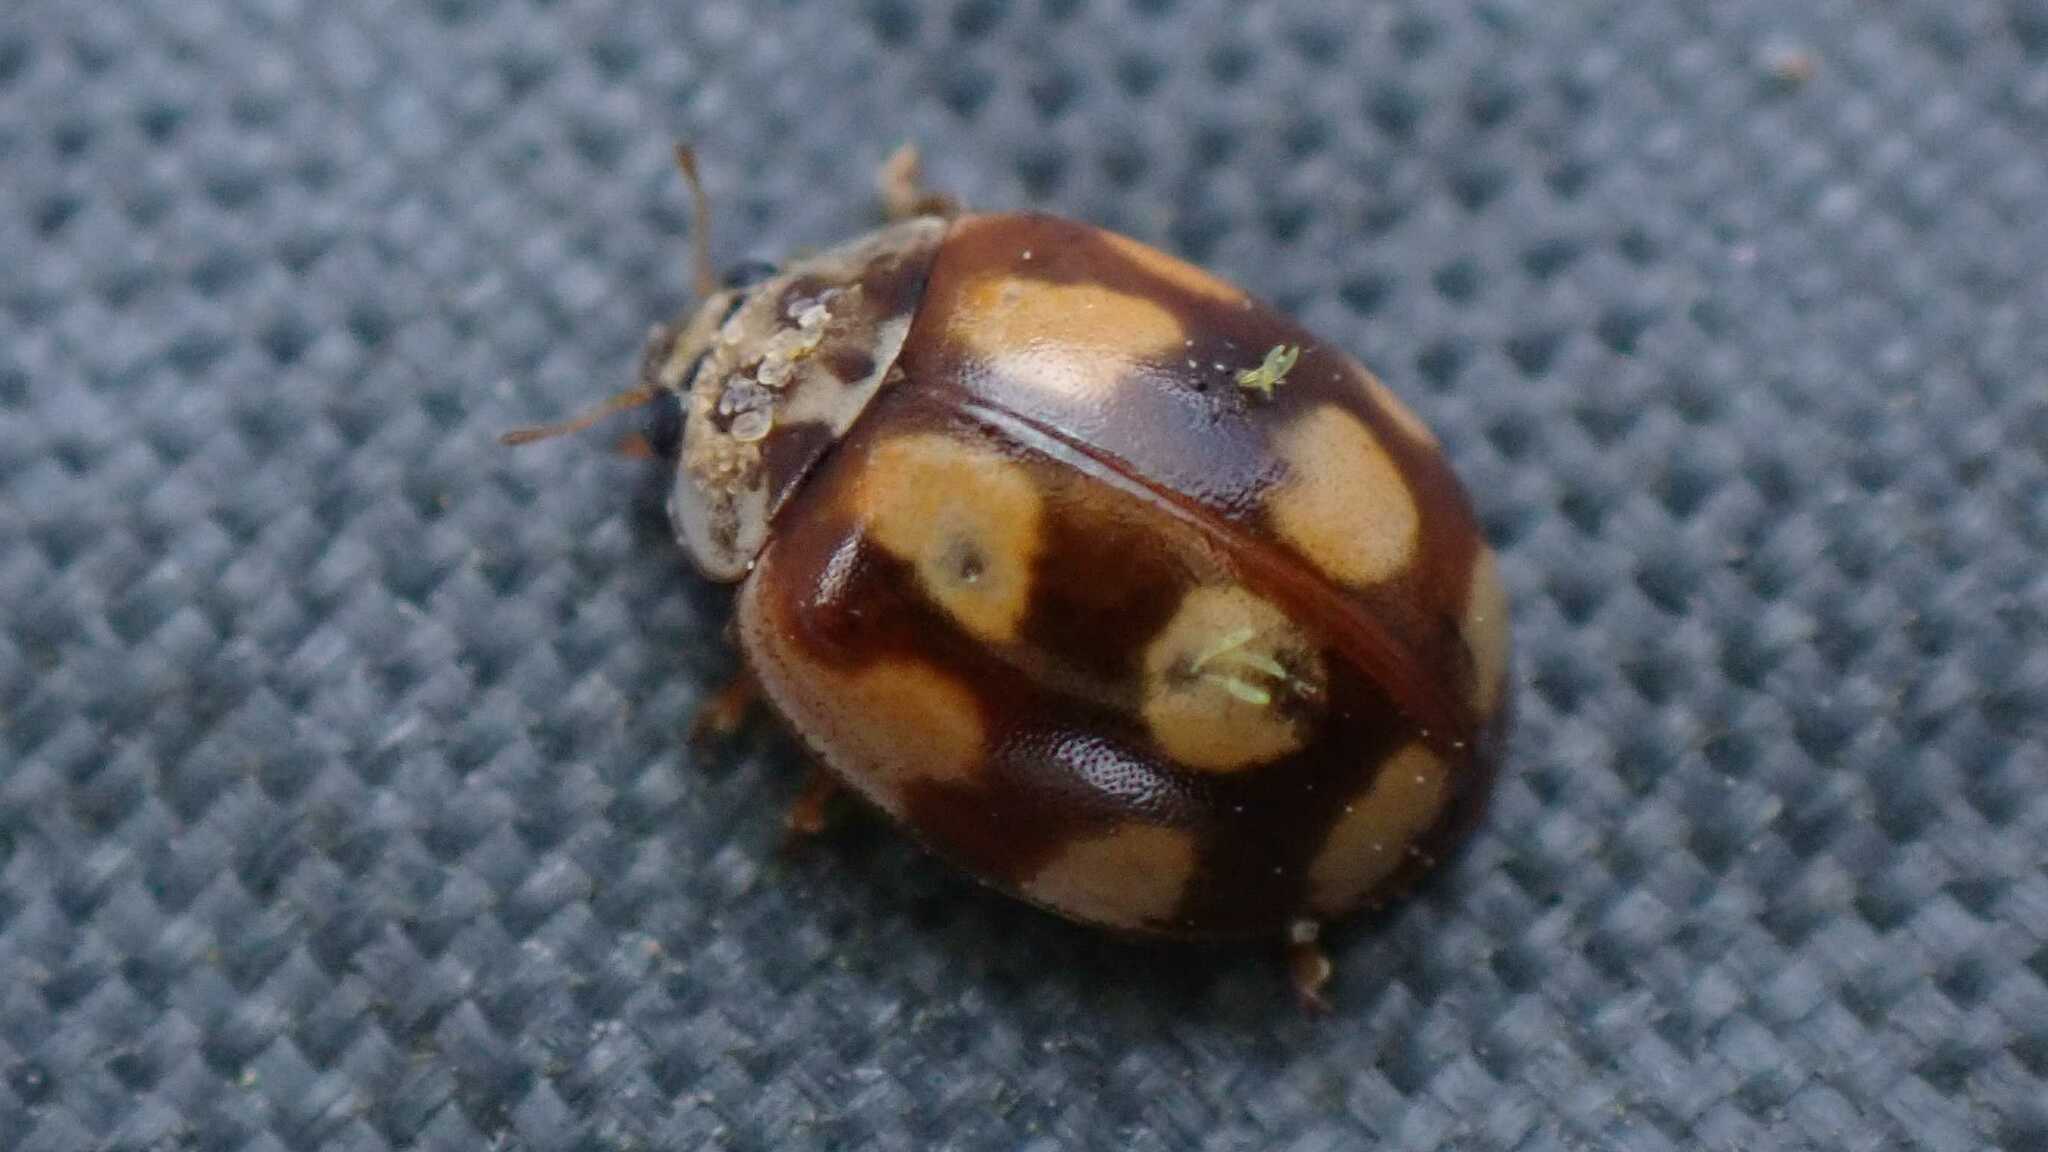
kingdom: Animalia
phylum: Arthropoda
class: Insecta
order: Coleoptera
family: Coccinellidae
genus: Adalia
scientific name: Adalia decempunctata
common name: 10-spot ladybird
